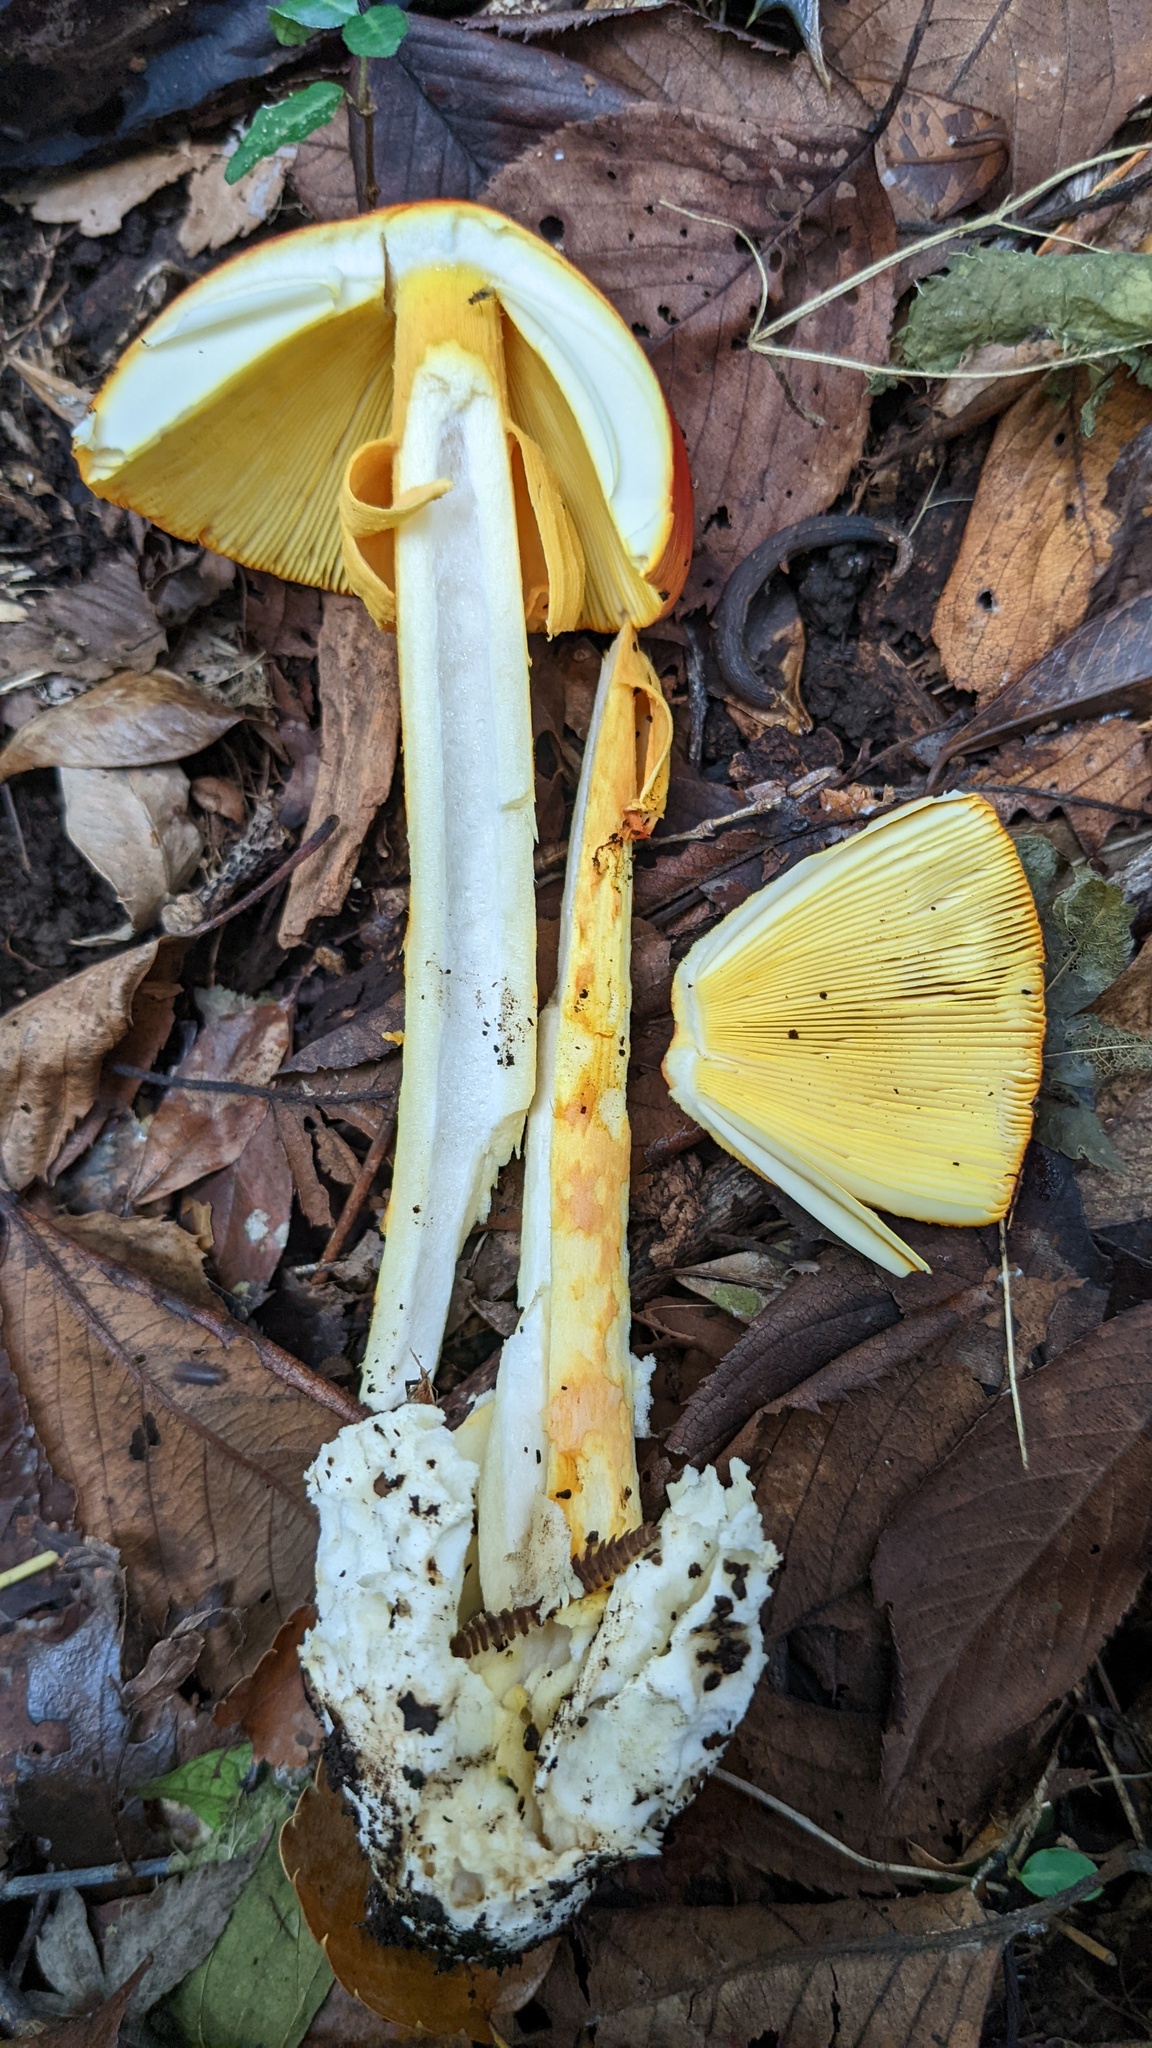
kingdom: Fungi
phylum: Basidiomycota
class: Agaricomycetes
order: Agaricales
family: Amanitaceae
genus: Amanita
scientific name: Amanita caesareoides
